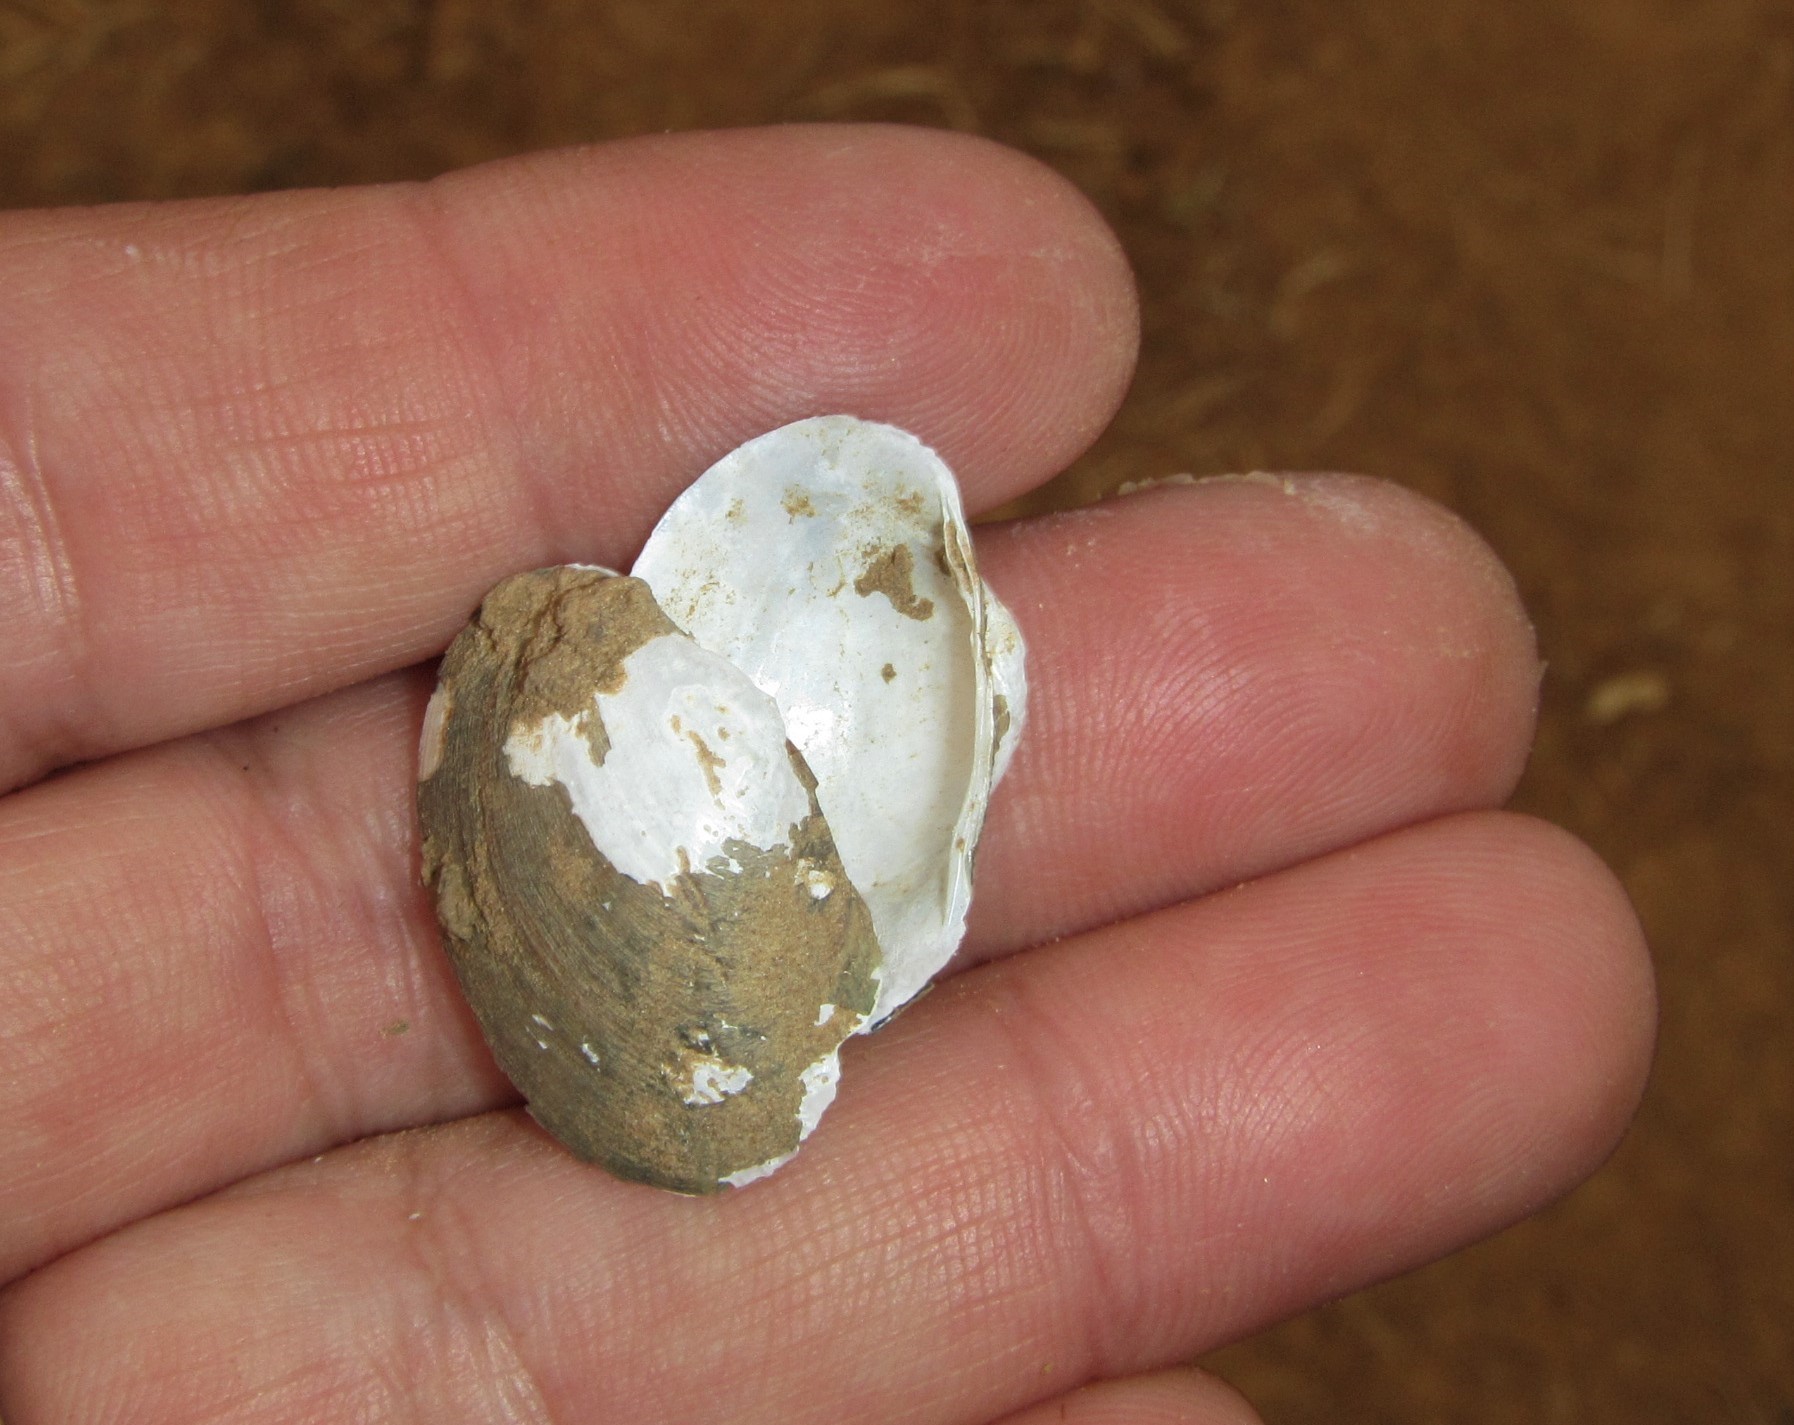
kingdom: Animalia
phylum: Mollusca
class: Bivalvia
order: Unionida
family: Unionidae
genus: Coelatura
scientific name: Coelatura aegyptiaca
